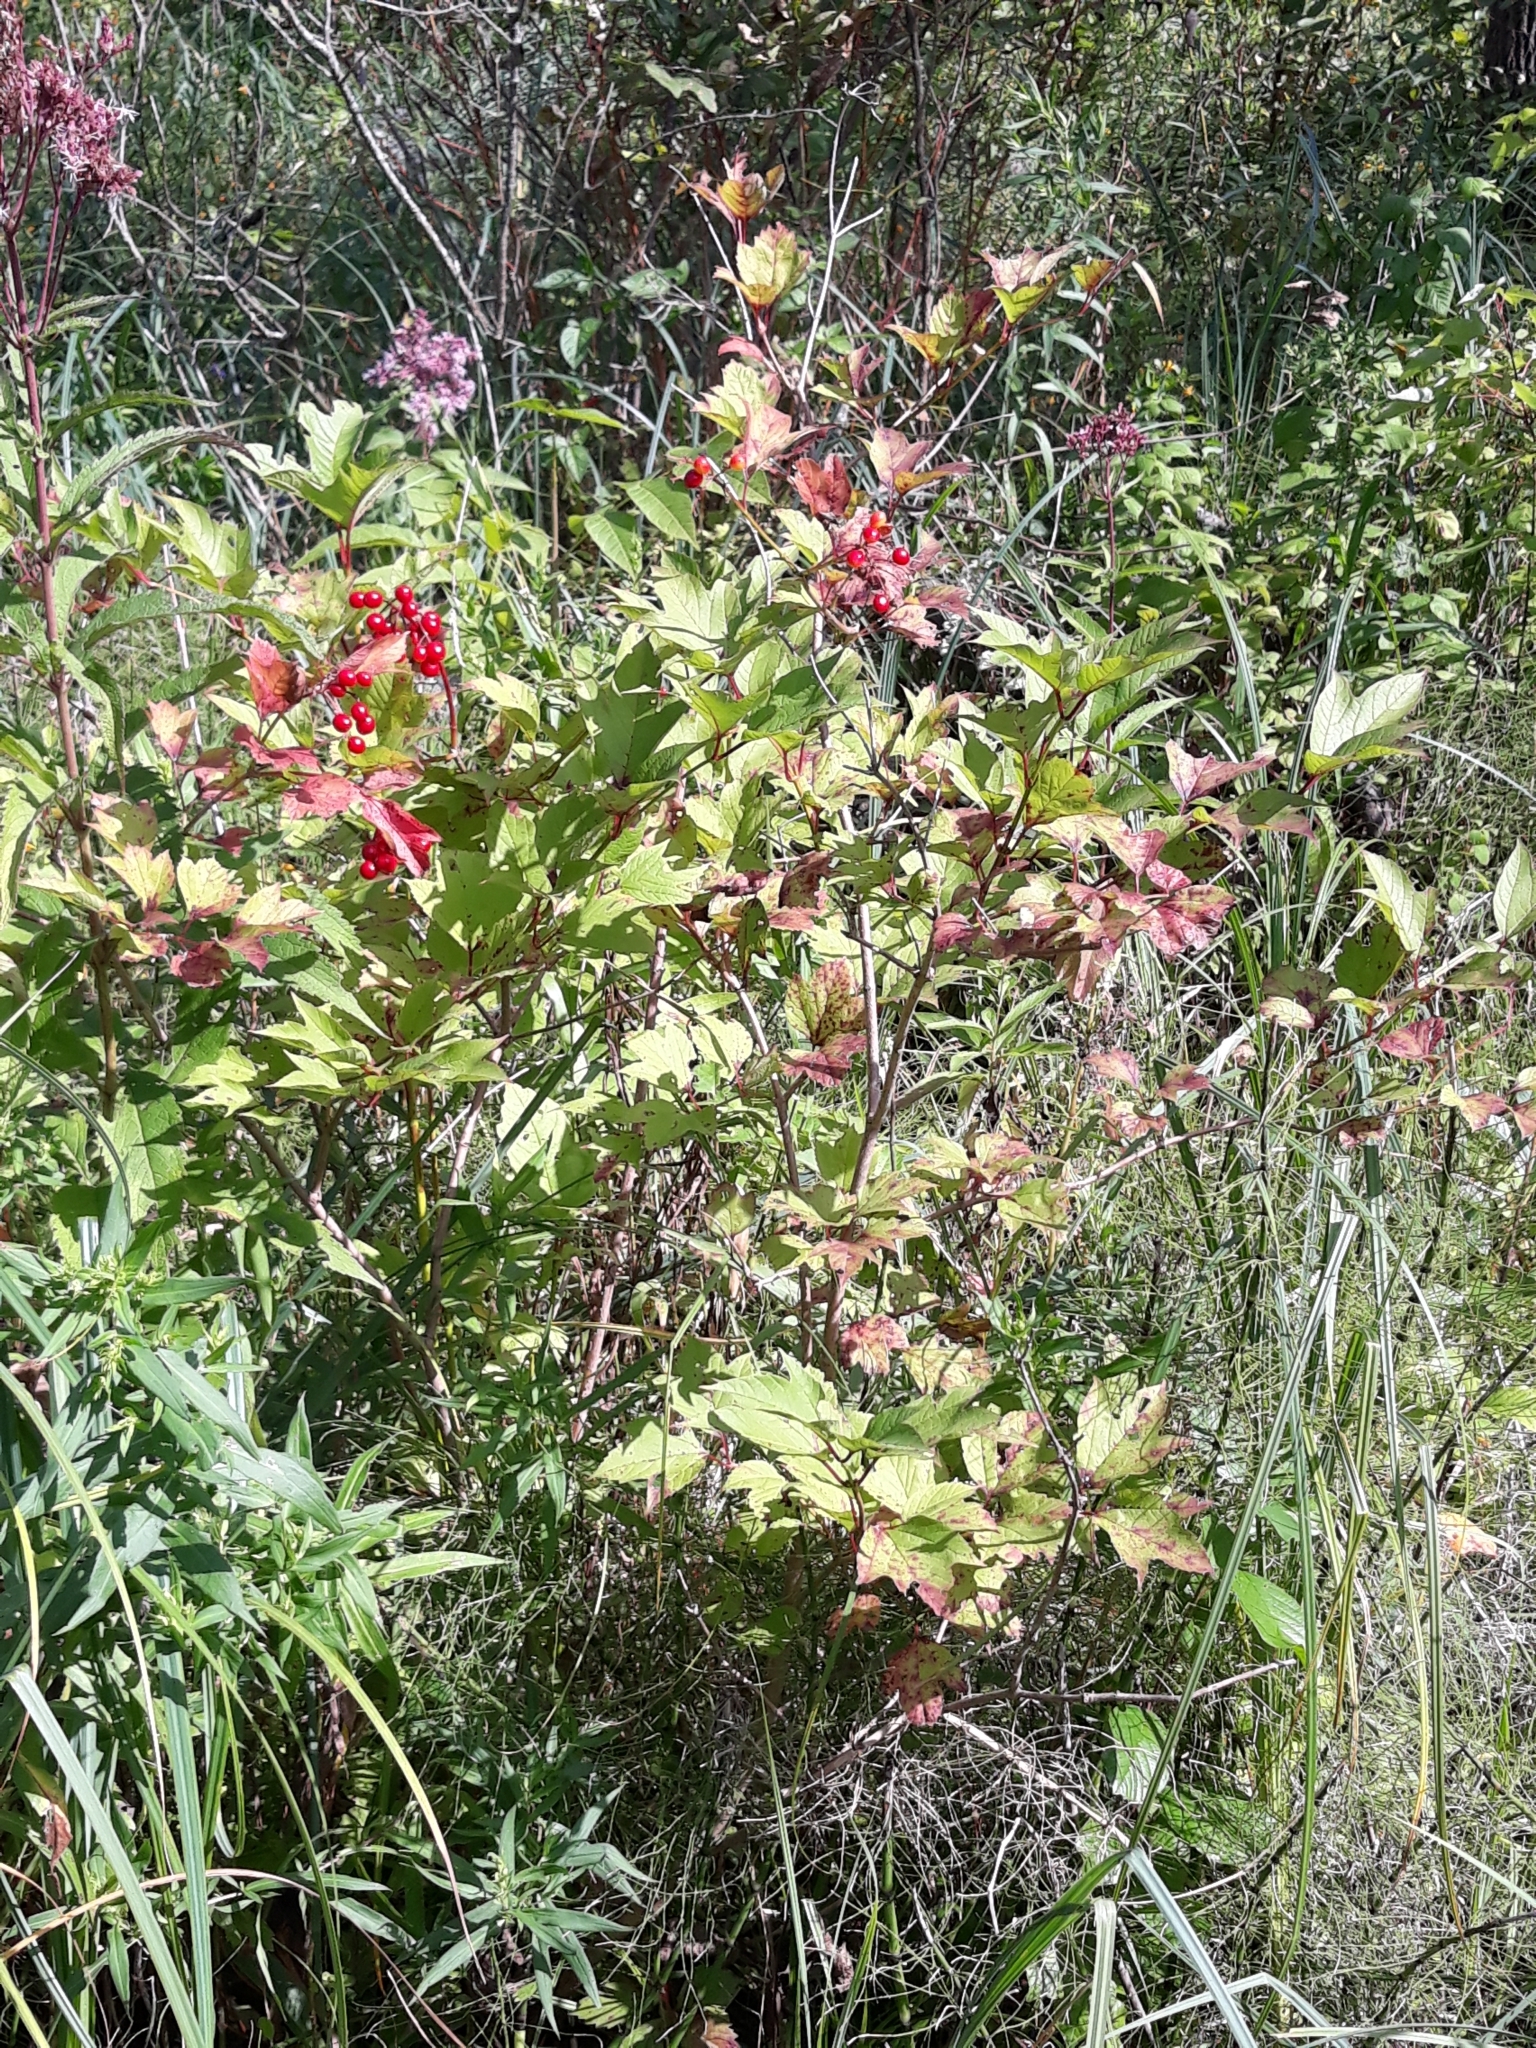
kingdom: Plantae
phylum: Tracheophyta
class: Magnoliopsida
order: Dipsacales
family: Viburnaceae
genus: Viburnum
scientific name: Viburnum opulus
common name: Guelder-rose
